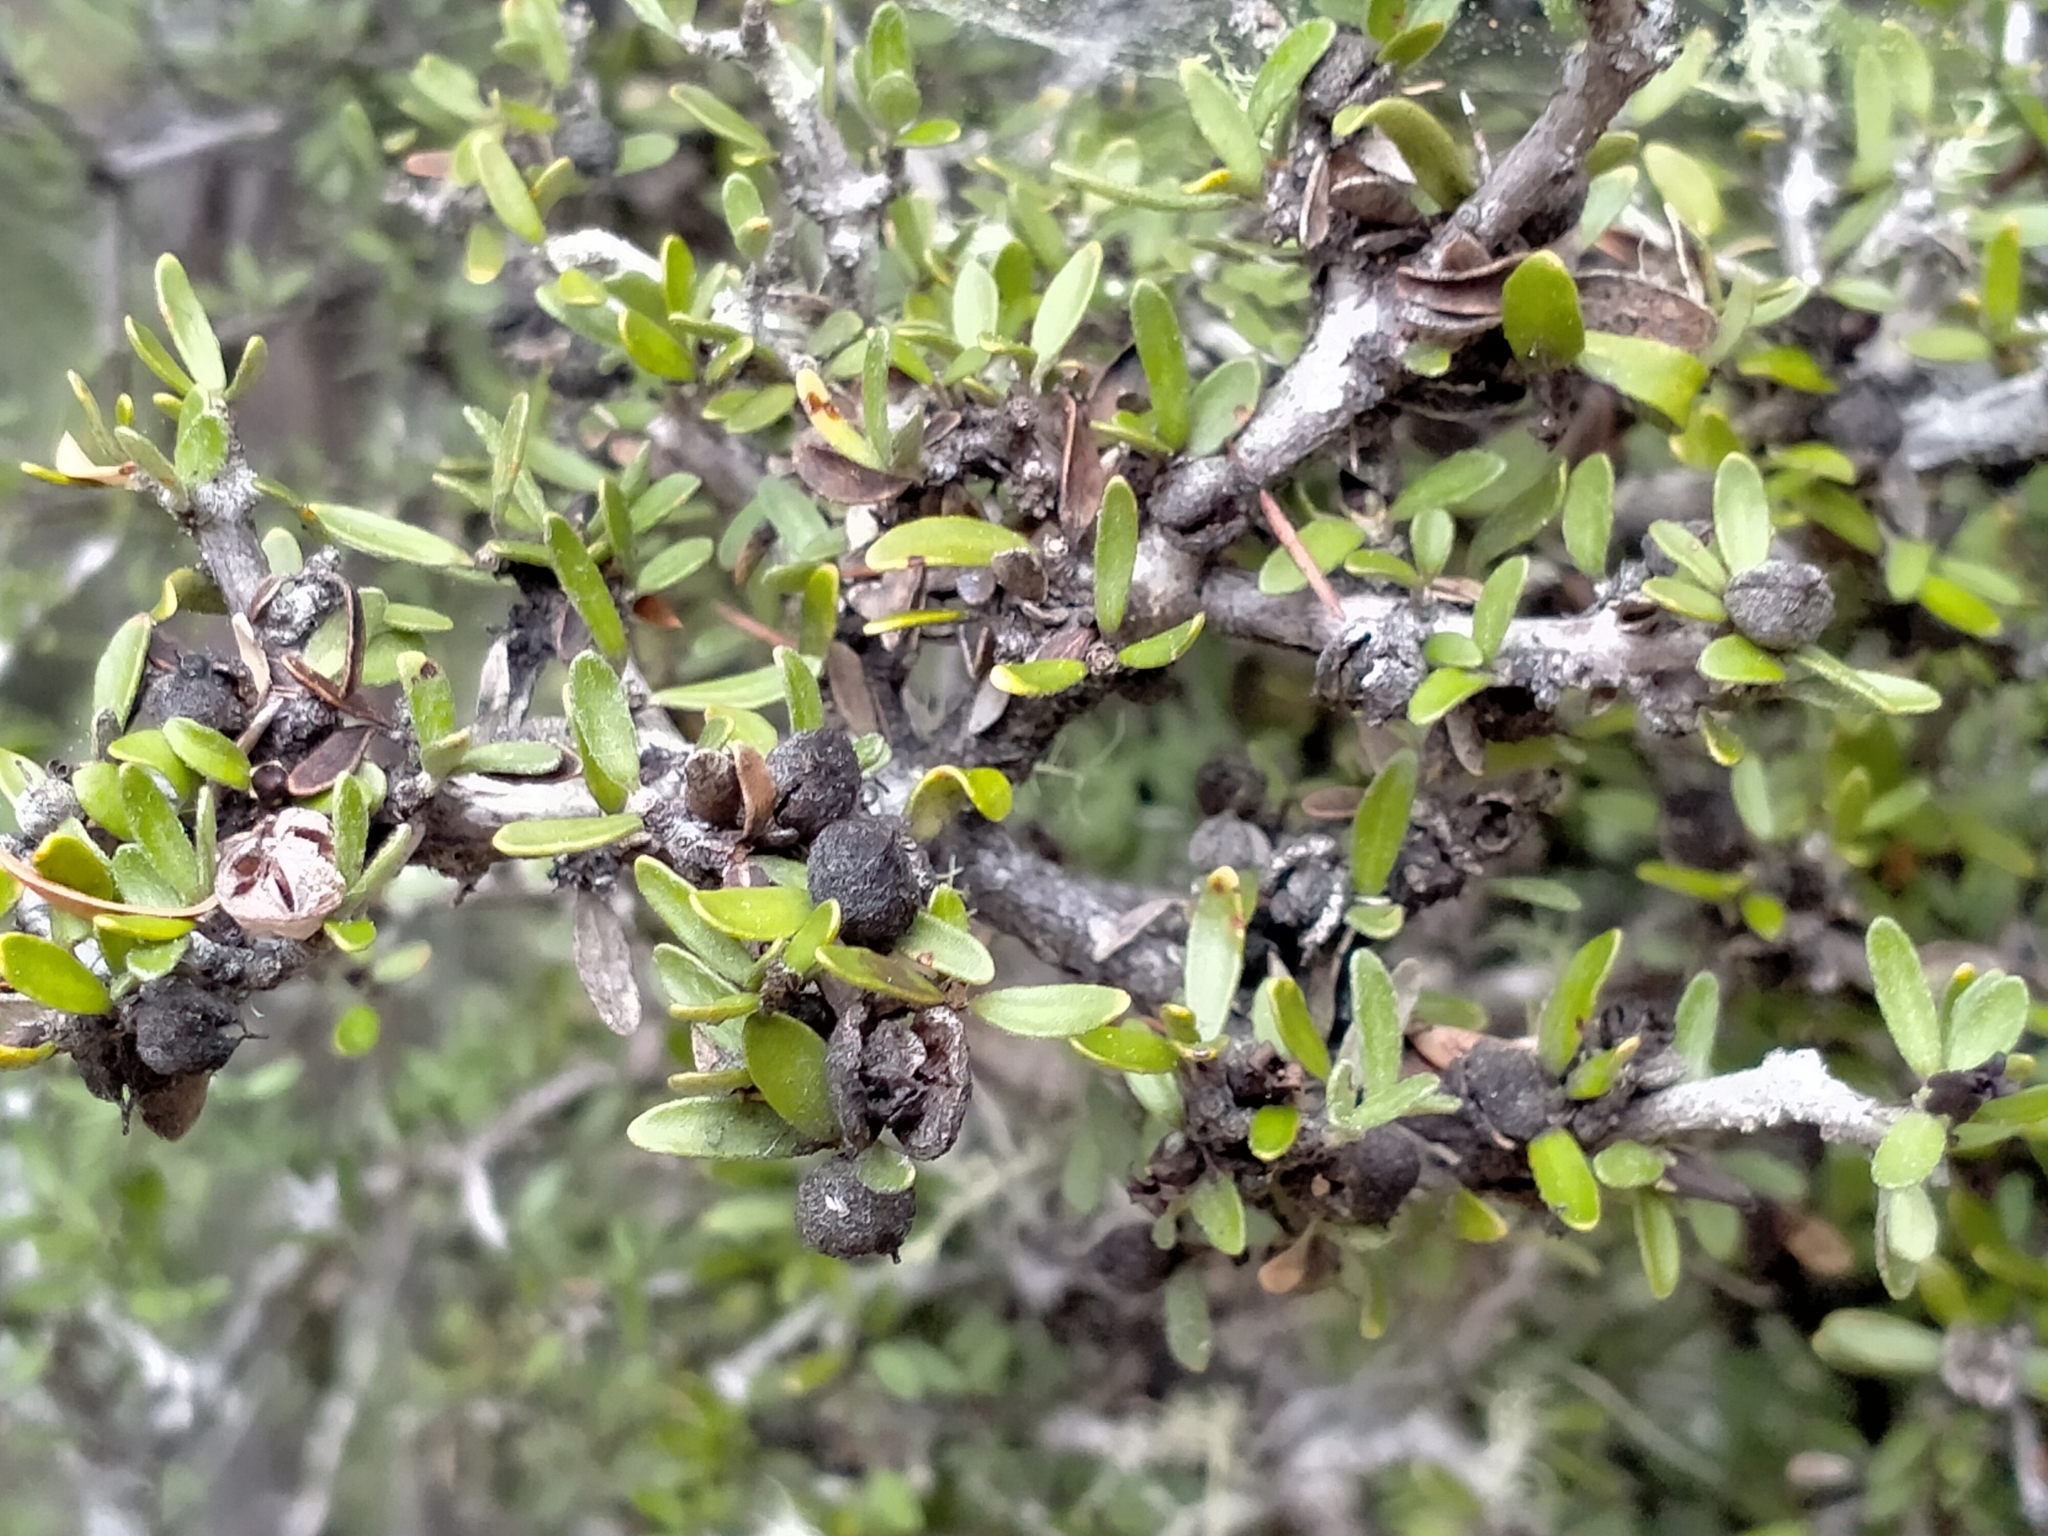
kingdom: Plantae
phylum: Tracheophyta
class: Magnoliopsida
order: Apiales
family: Pittosporaceae
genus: Pittosporum
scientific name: Pittosporum rigidum
